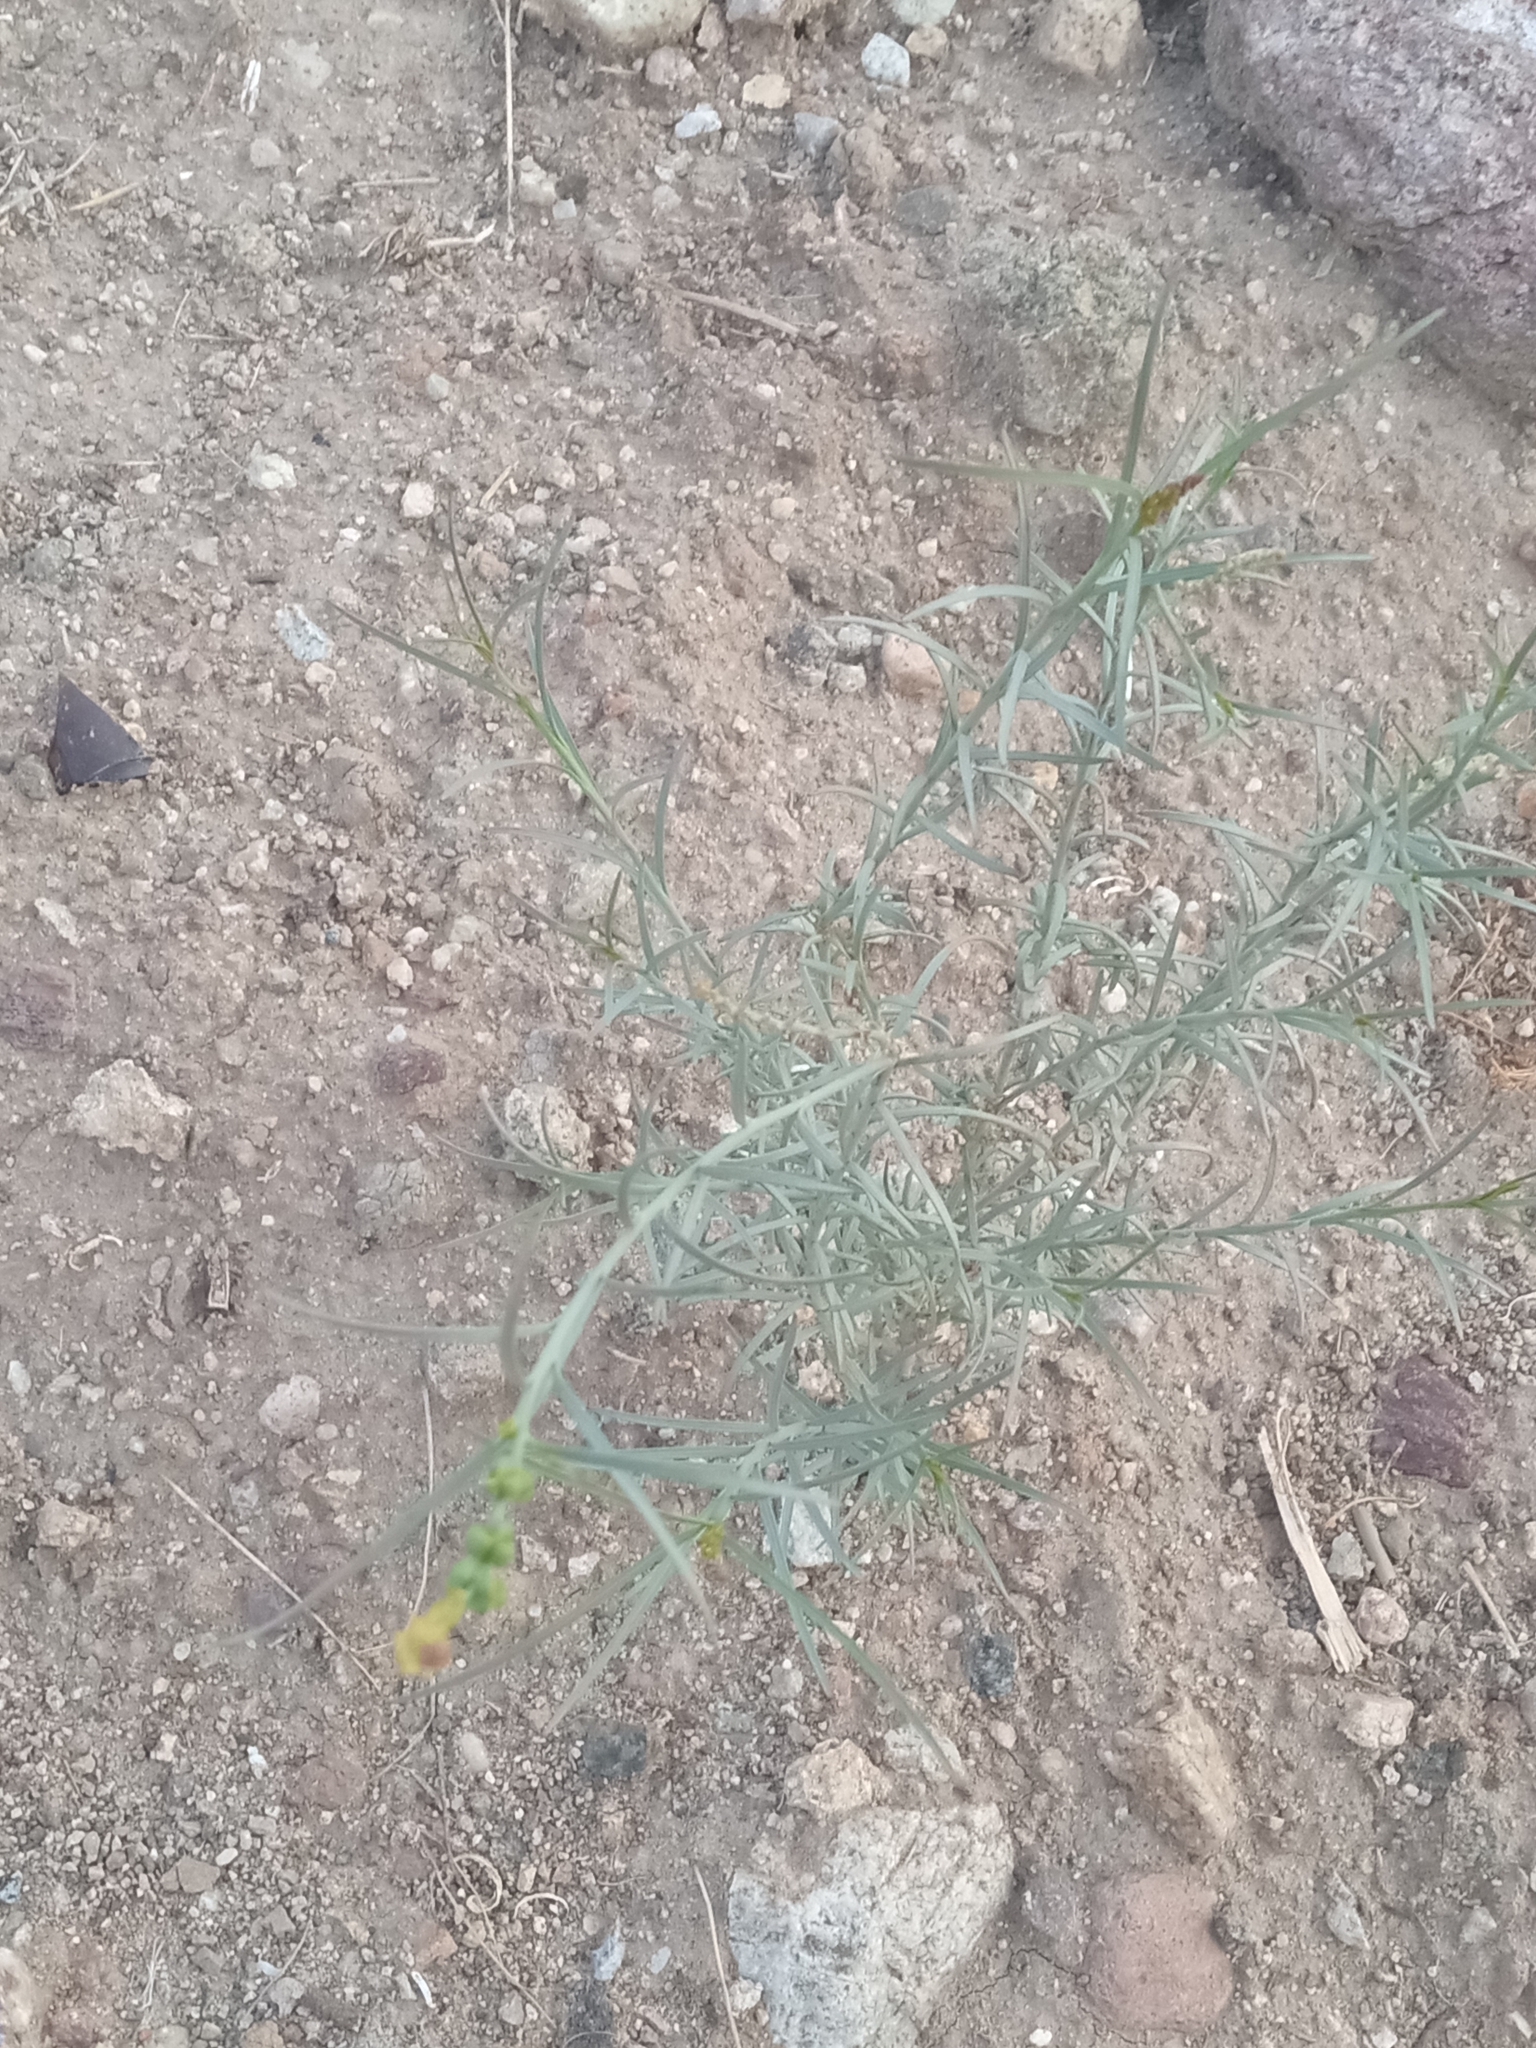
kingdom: Plantae
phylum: Tracheophyta
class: Magnoliopsida
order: Malpighiales
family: Euphorbiaceae
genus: Stillingia
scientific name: Stillingia linearifolia
